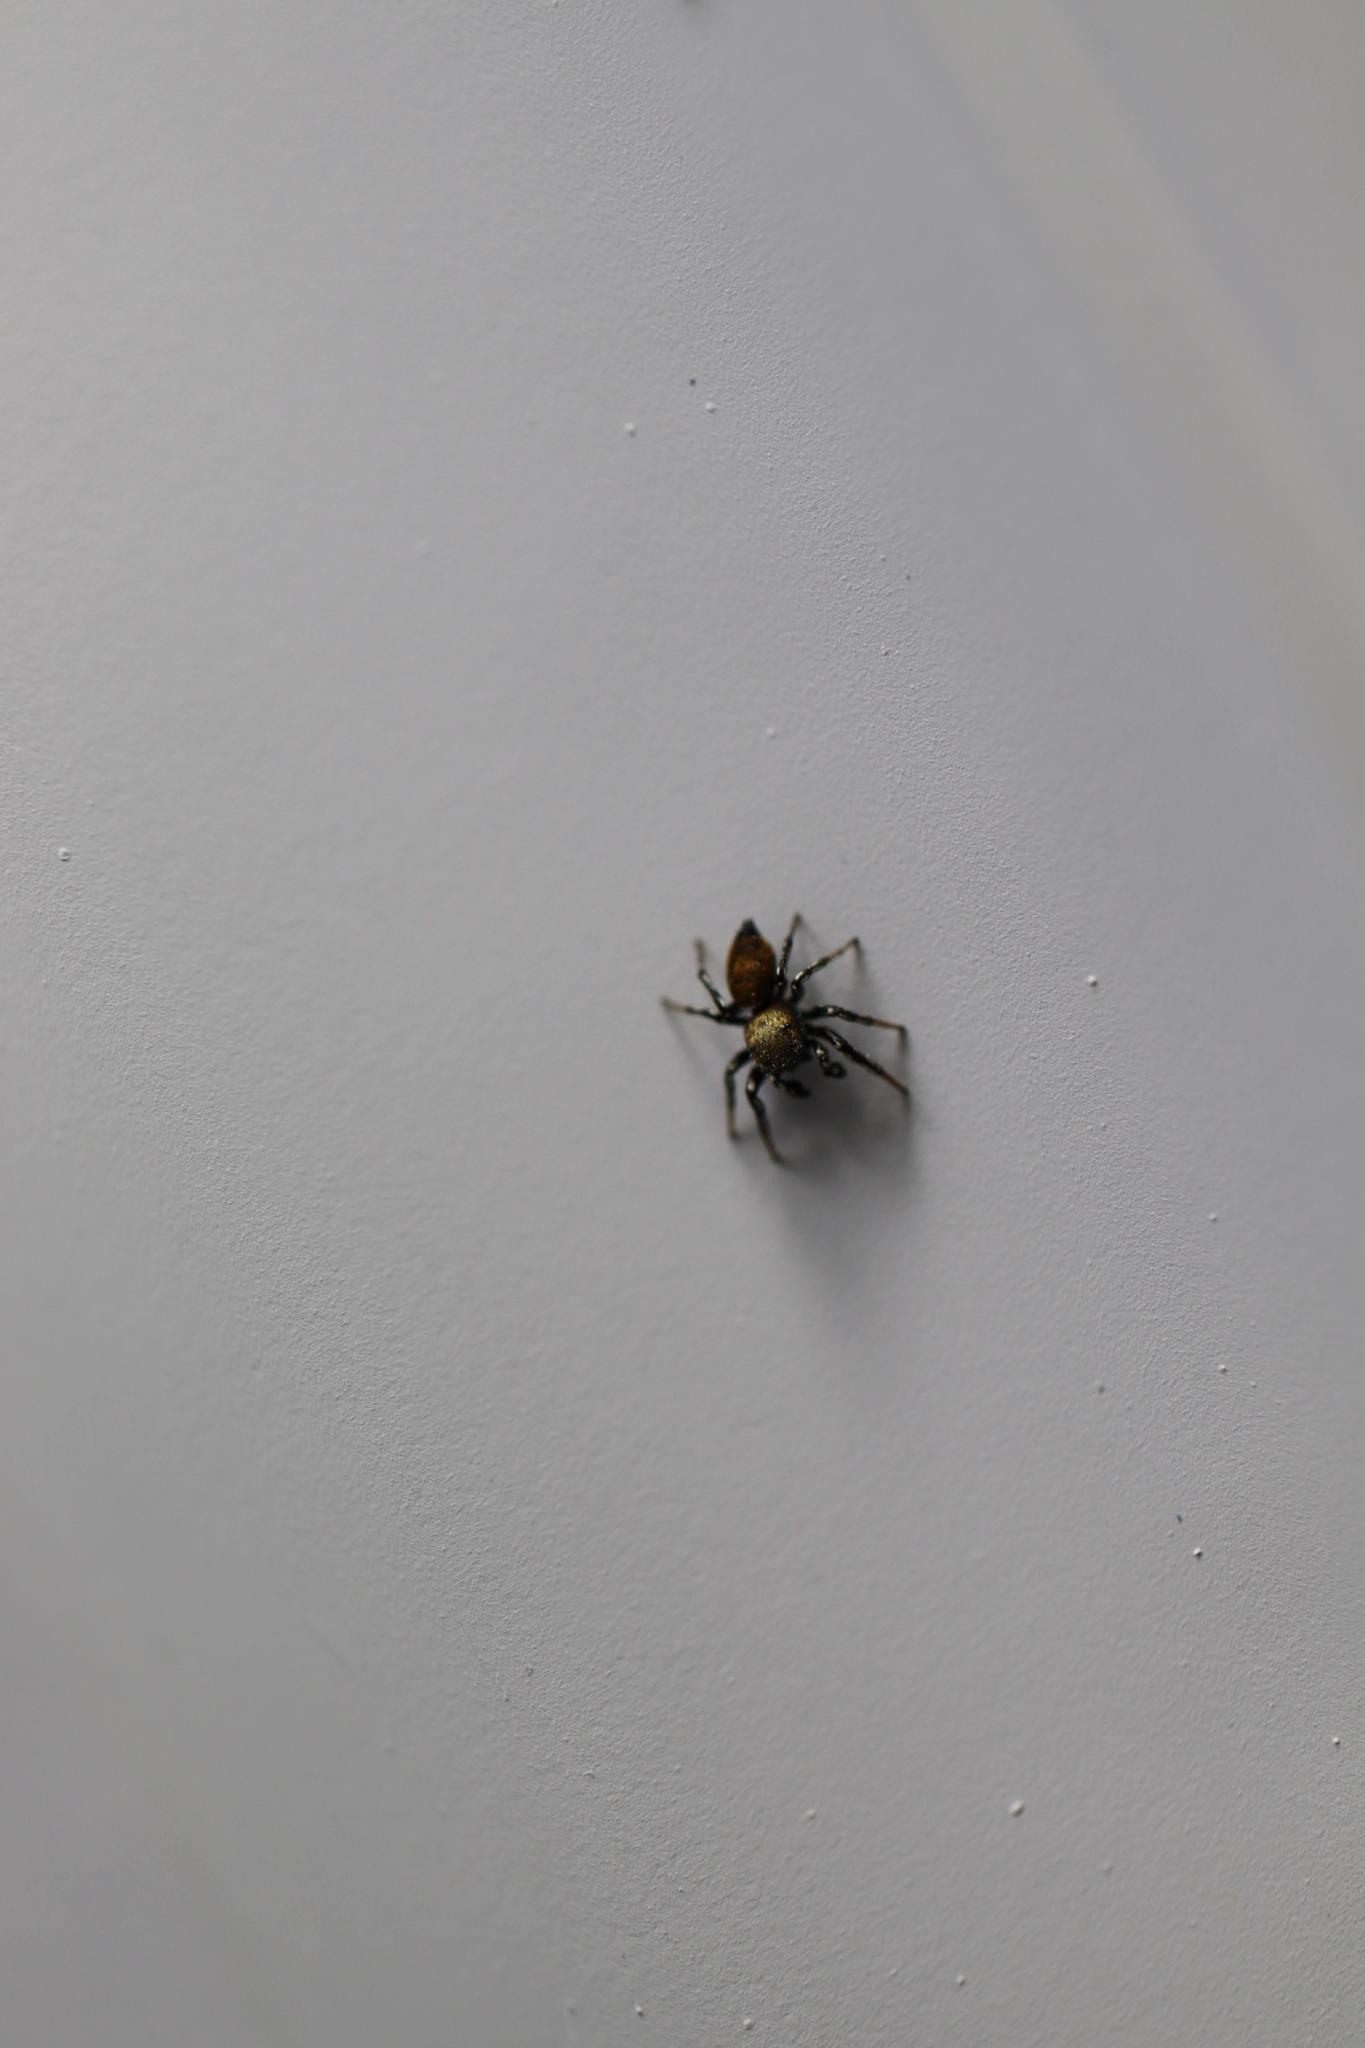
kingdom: Animalia
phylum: Arthropoda
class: Arachnida
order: Araneae
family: Salticidae
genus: Heliophanus
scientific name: Heliophanus kochii
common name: Sun jumping spider
